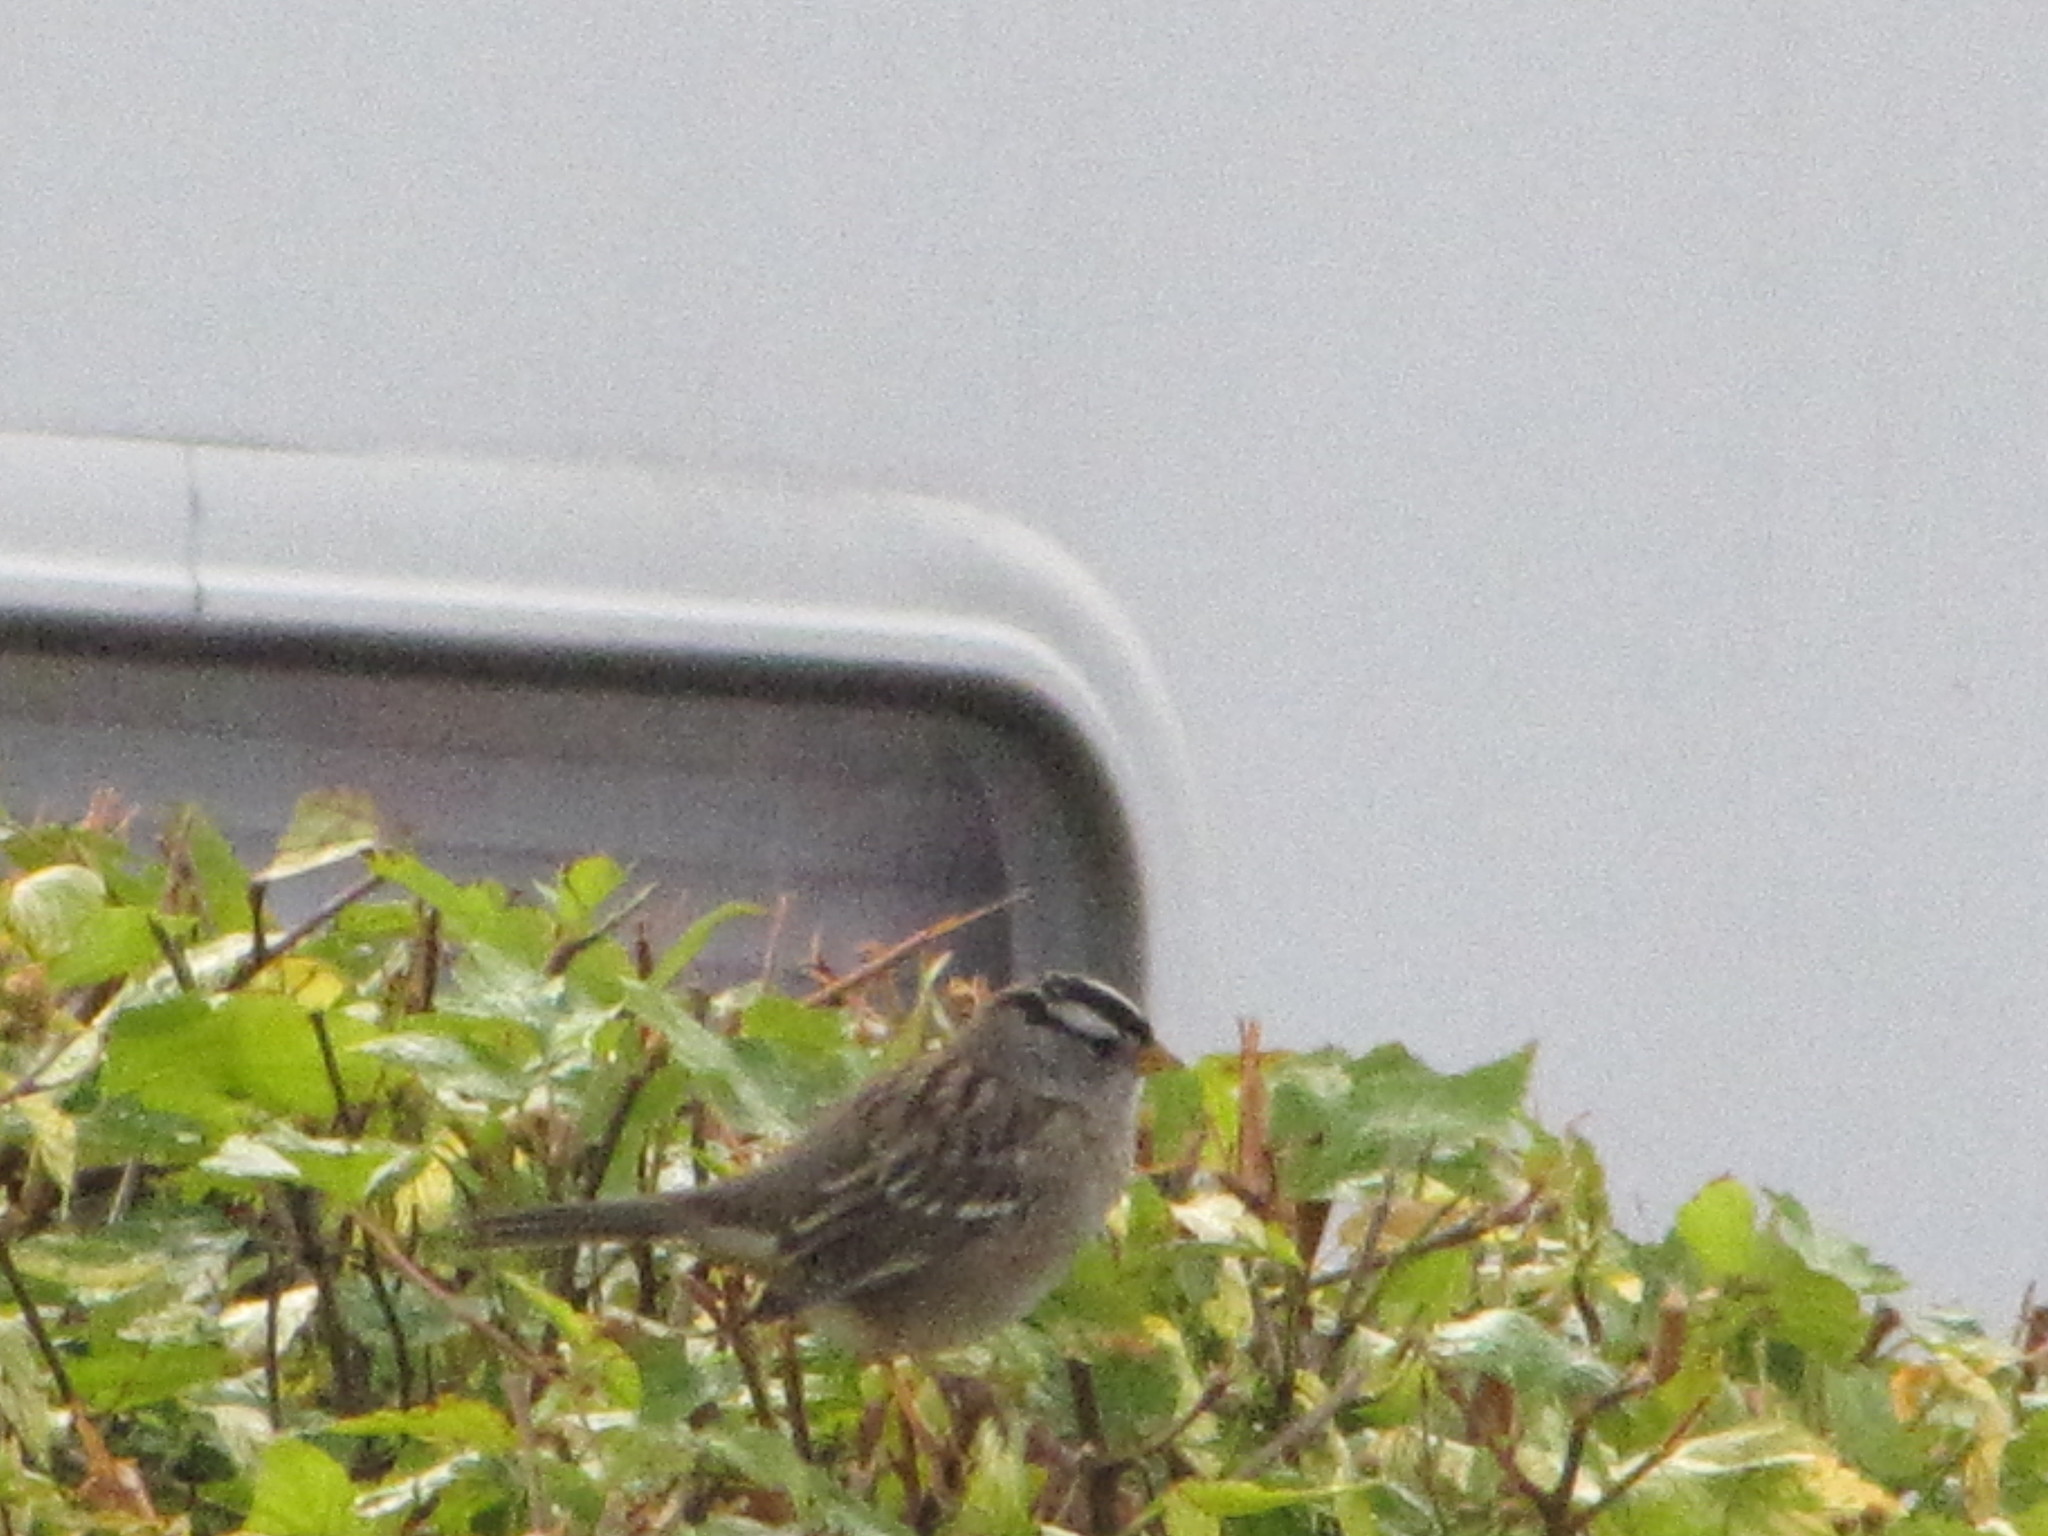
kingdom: Animalia
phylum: Chordata
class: Aves
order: Passeriformes
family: Passerellidae
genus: Zonotrichia
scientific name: Zonotrichia leucophrys
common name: White-crowned sparrow
